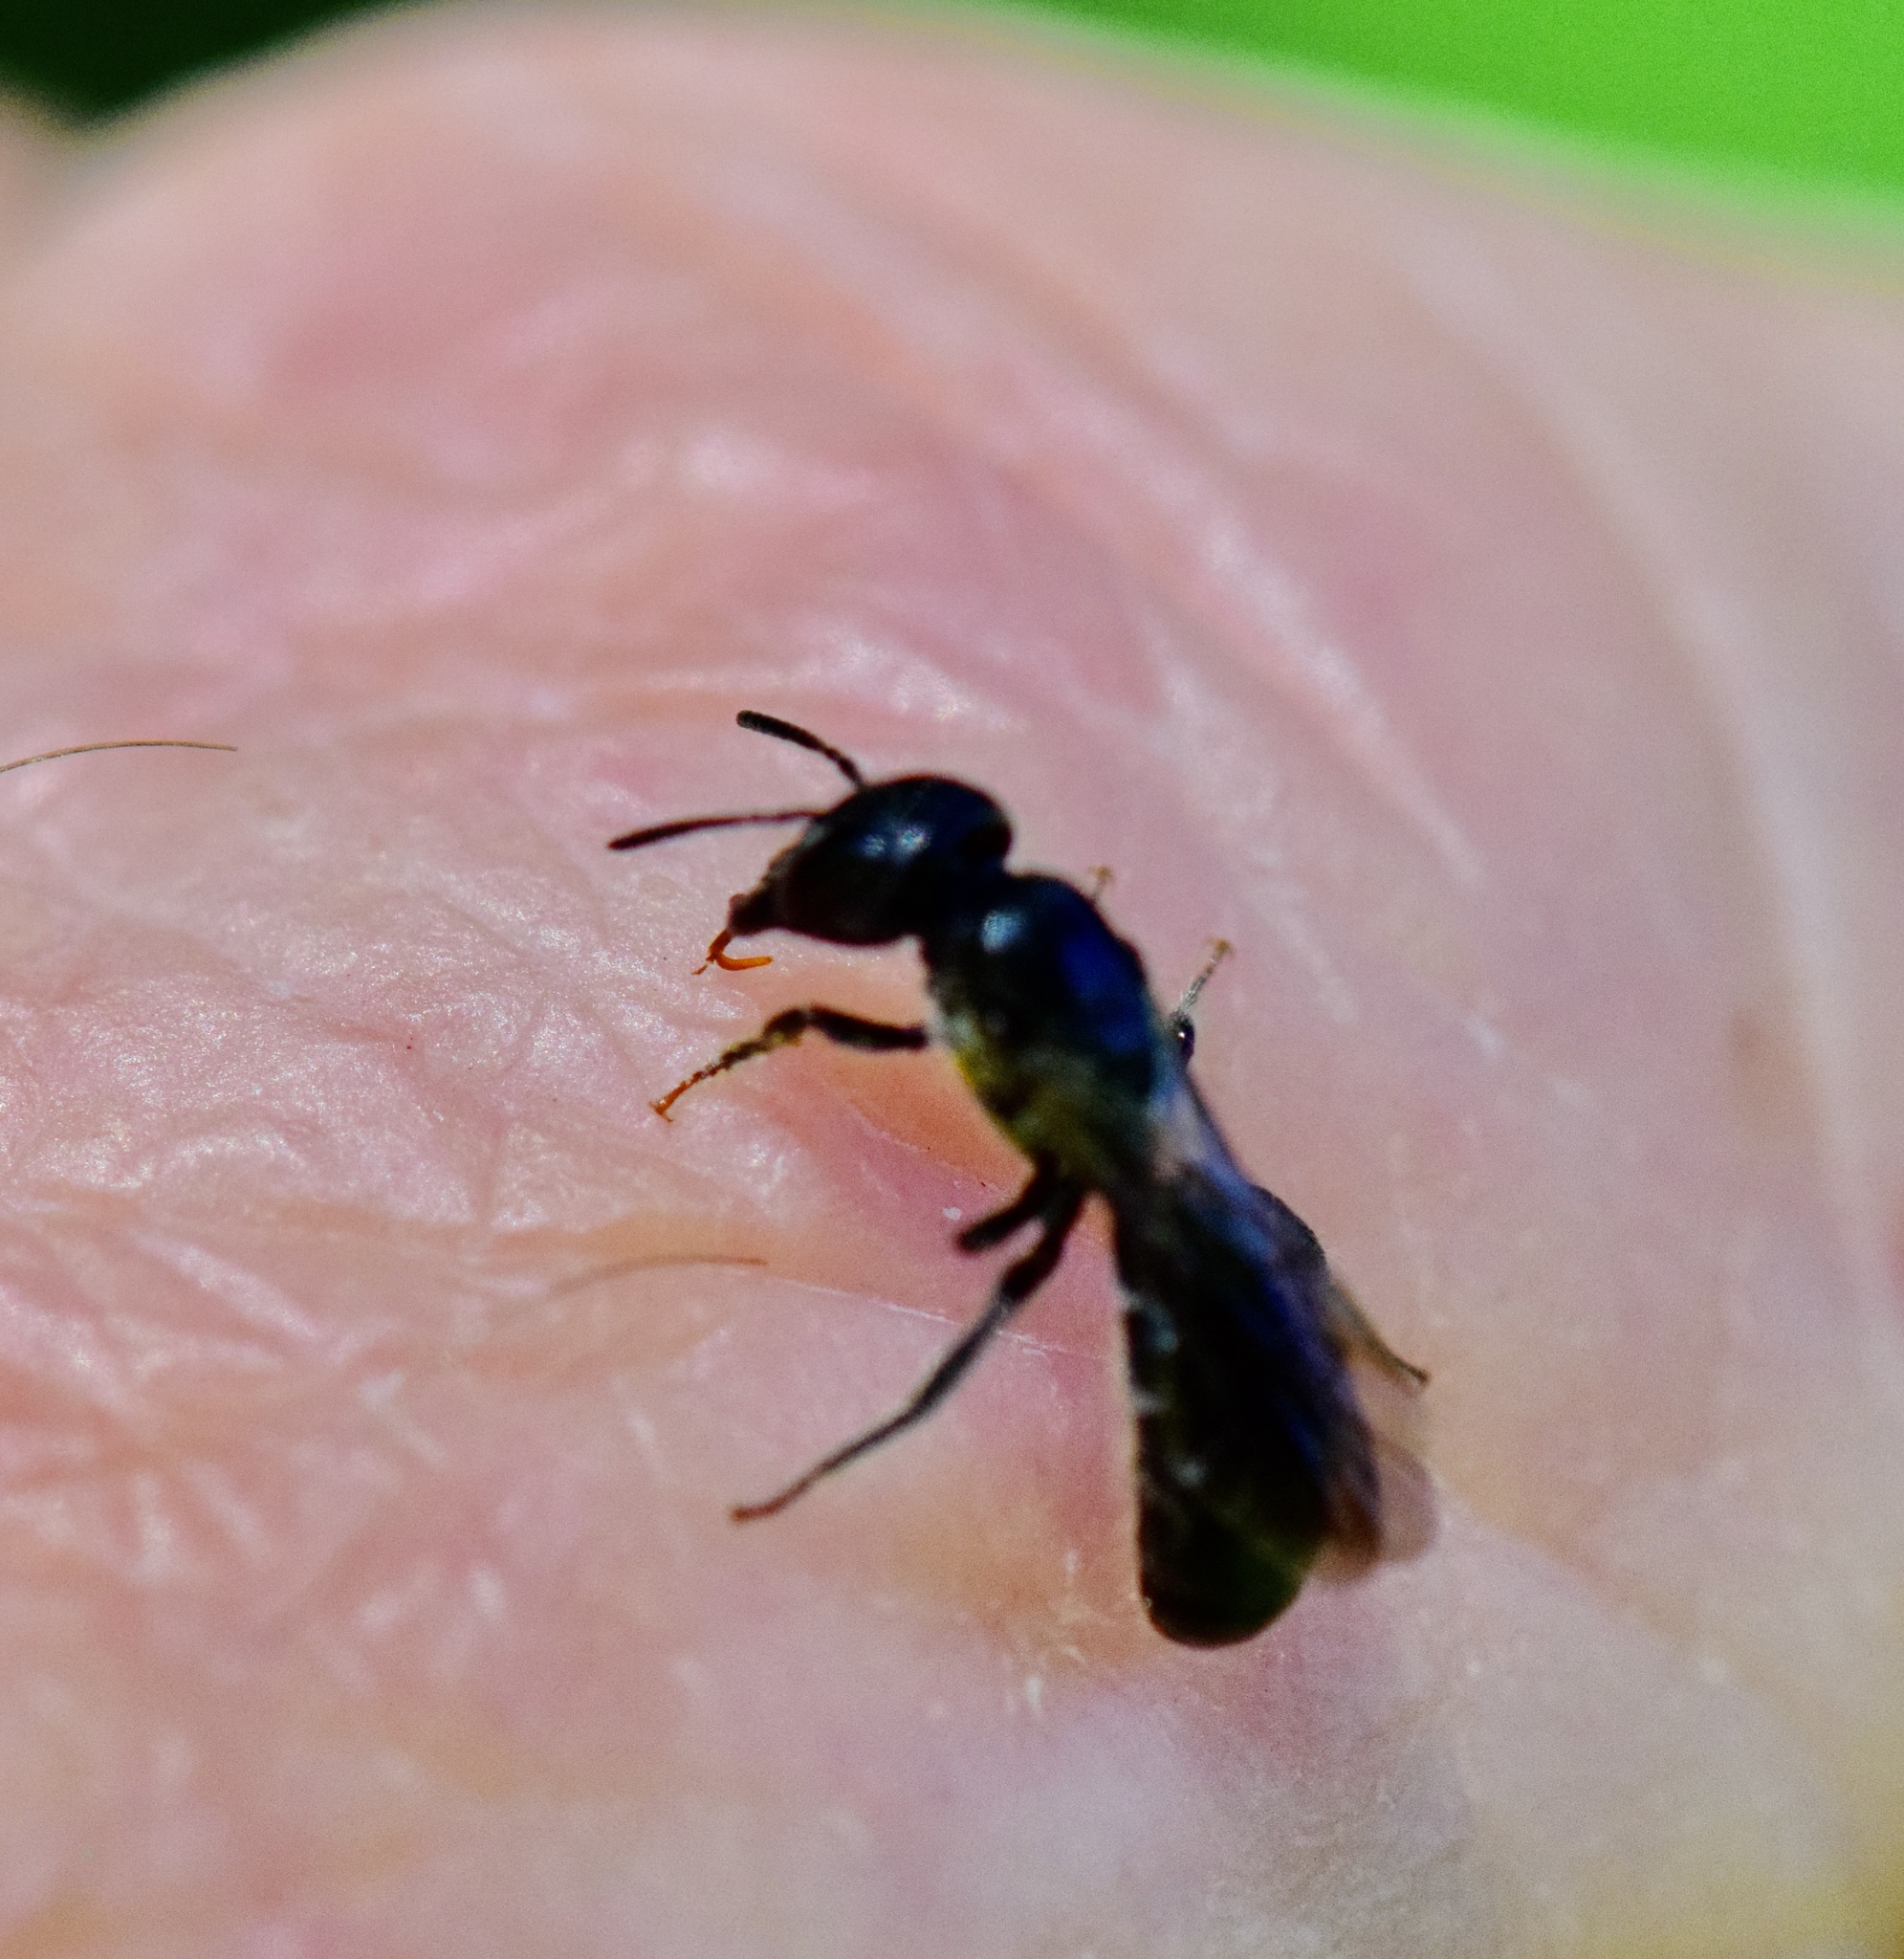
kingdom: Animalia
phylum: Arthropoda
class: Insecta
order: Hymenoptera
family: Megachilidae
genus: Chelostoma
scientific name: Chelostoma philadelphi
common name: Mock-orange scissor bee
